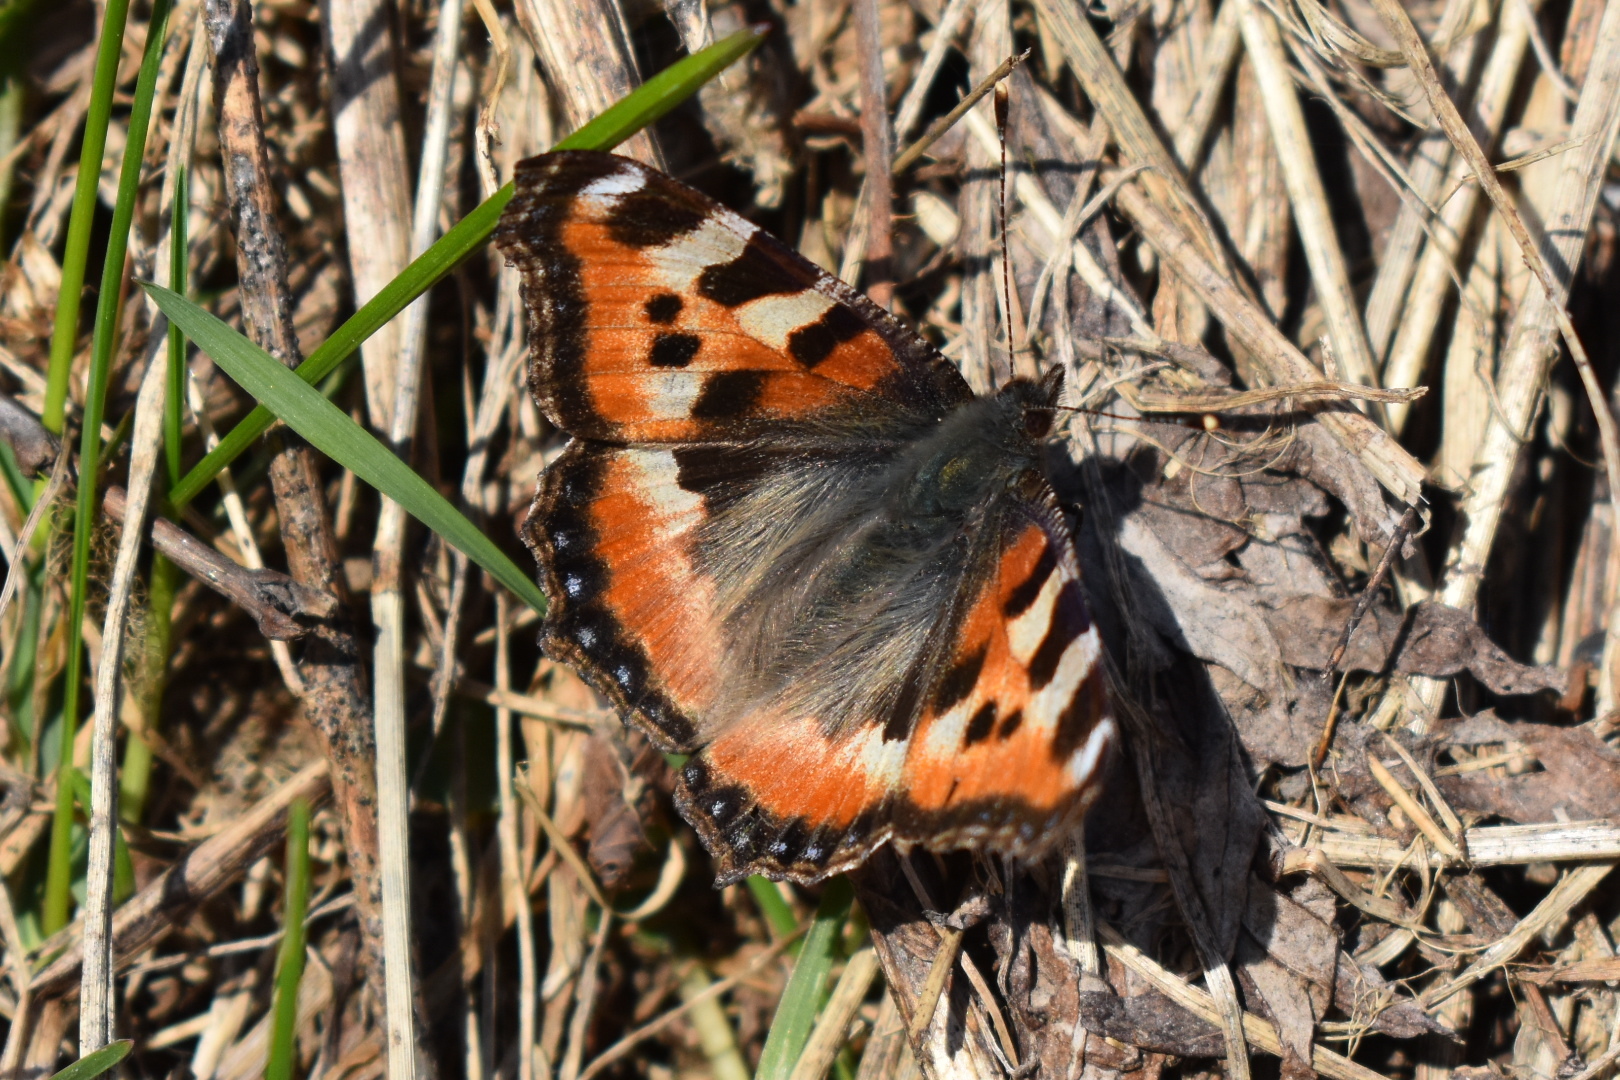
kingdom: Animalia
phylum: Arthropoda
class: Insecta
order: Lepidoptera
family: Nymphalidae
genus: Aglais
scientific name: Aglais urticae
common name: Small tortoiseshell
